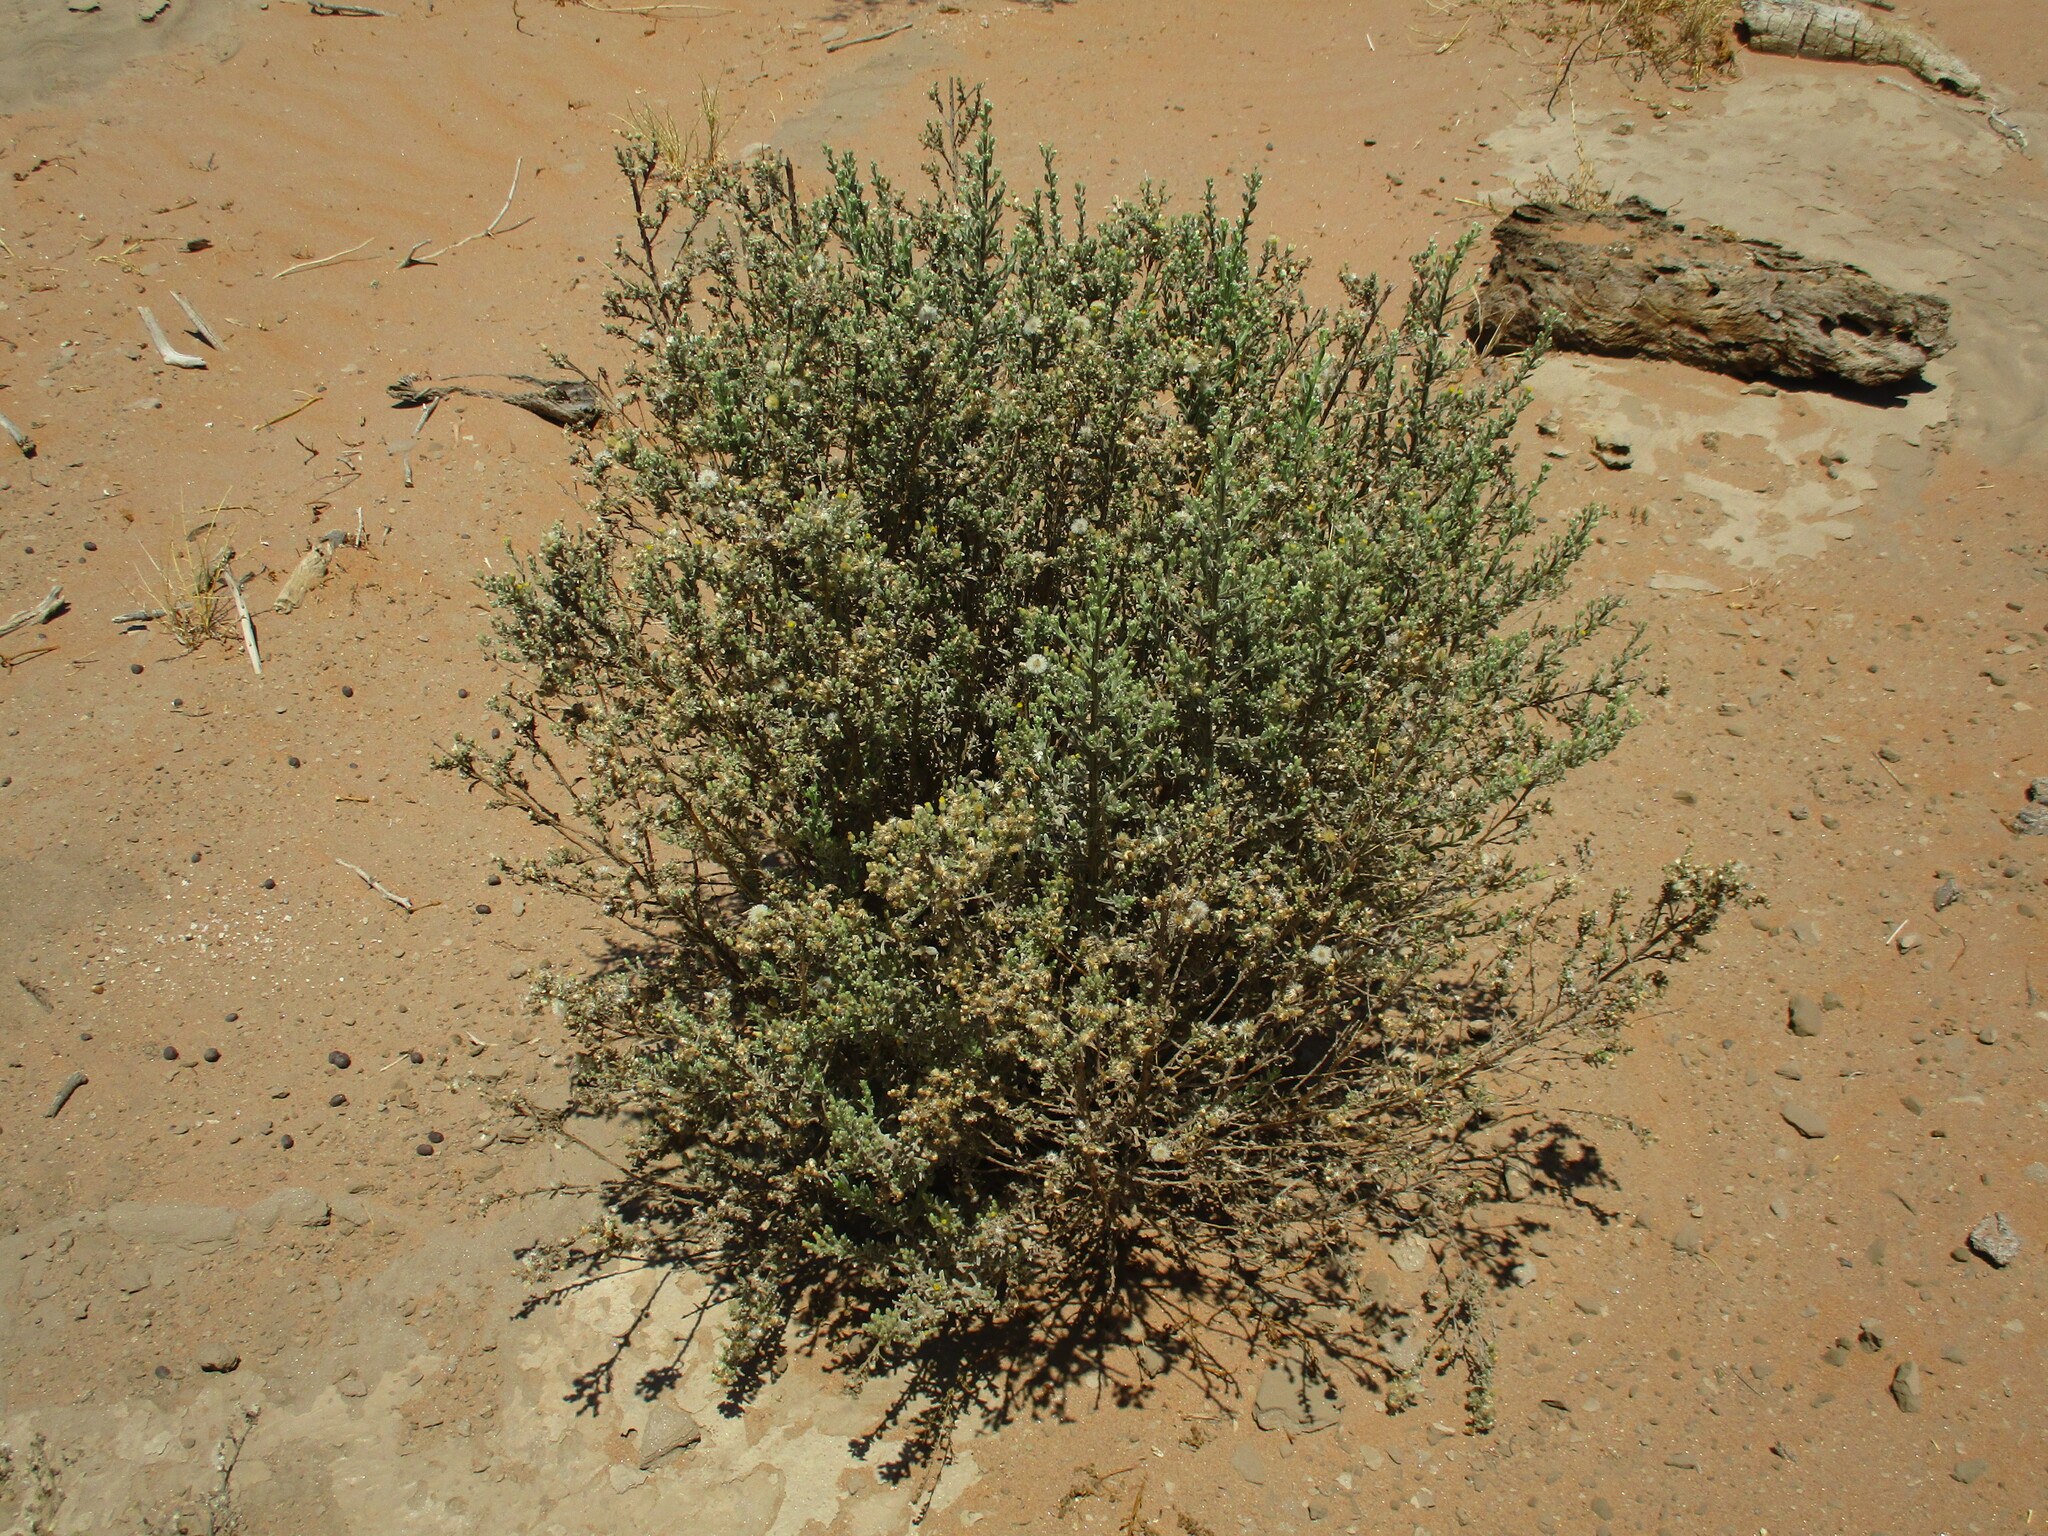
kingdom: Plantae
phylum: Tracheophyta
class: Magnoliopsida
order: Asterales
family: Asteraceae
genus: Galgera
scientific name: Galgera decurrens
